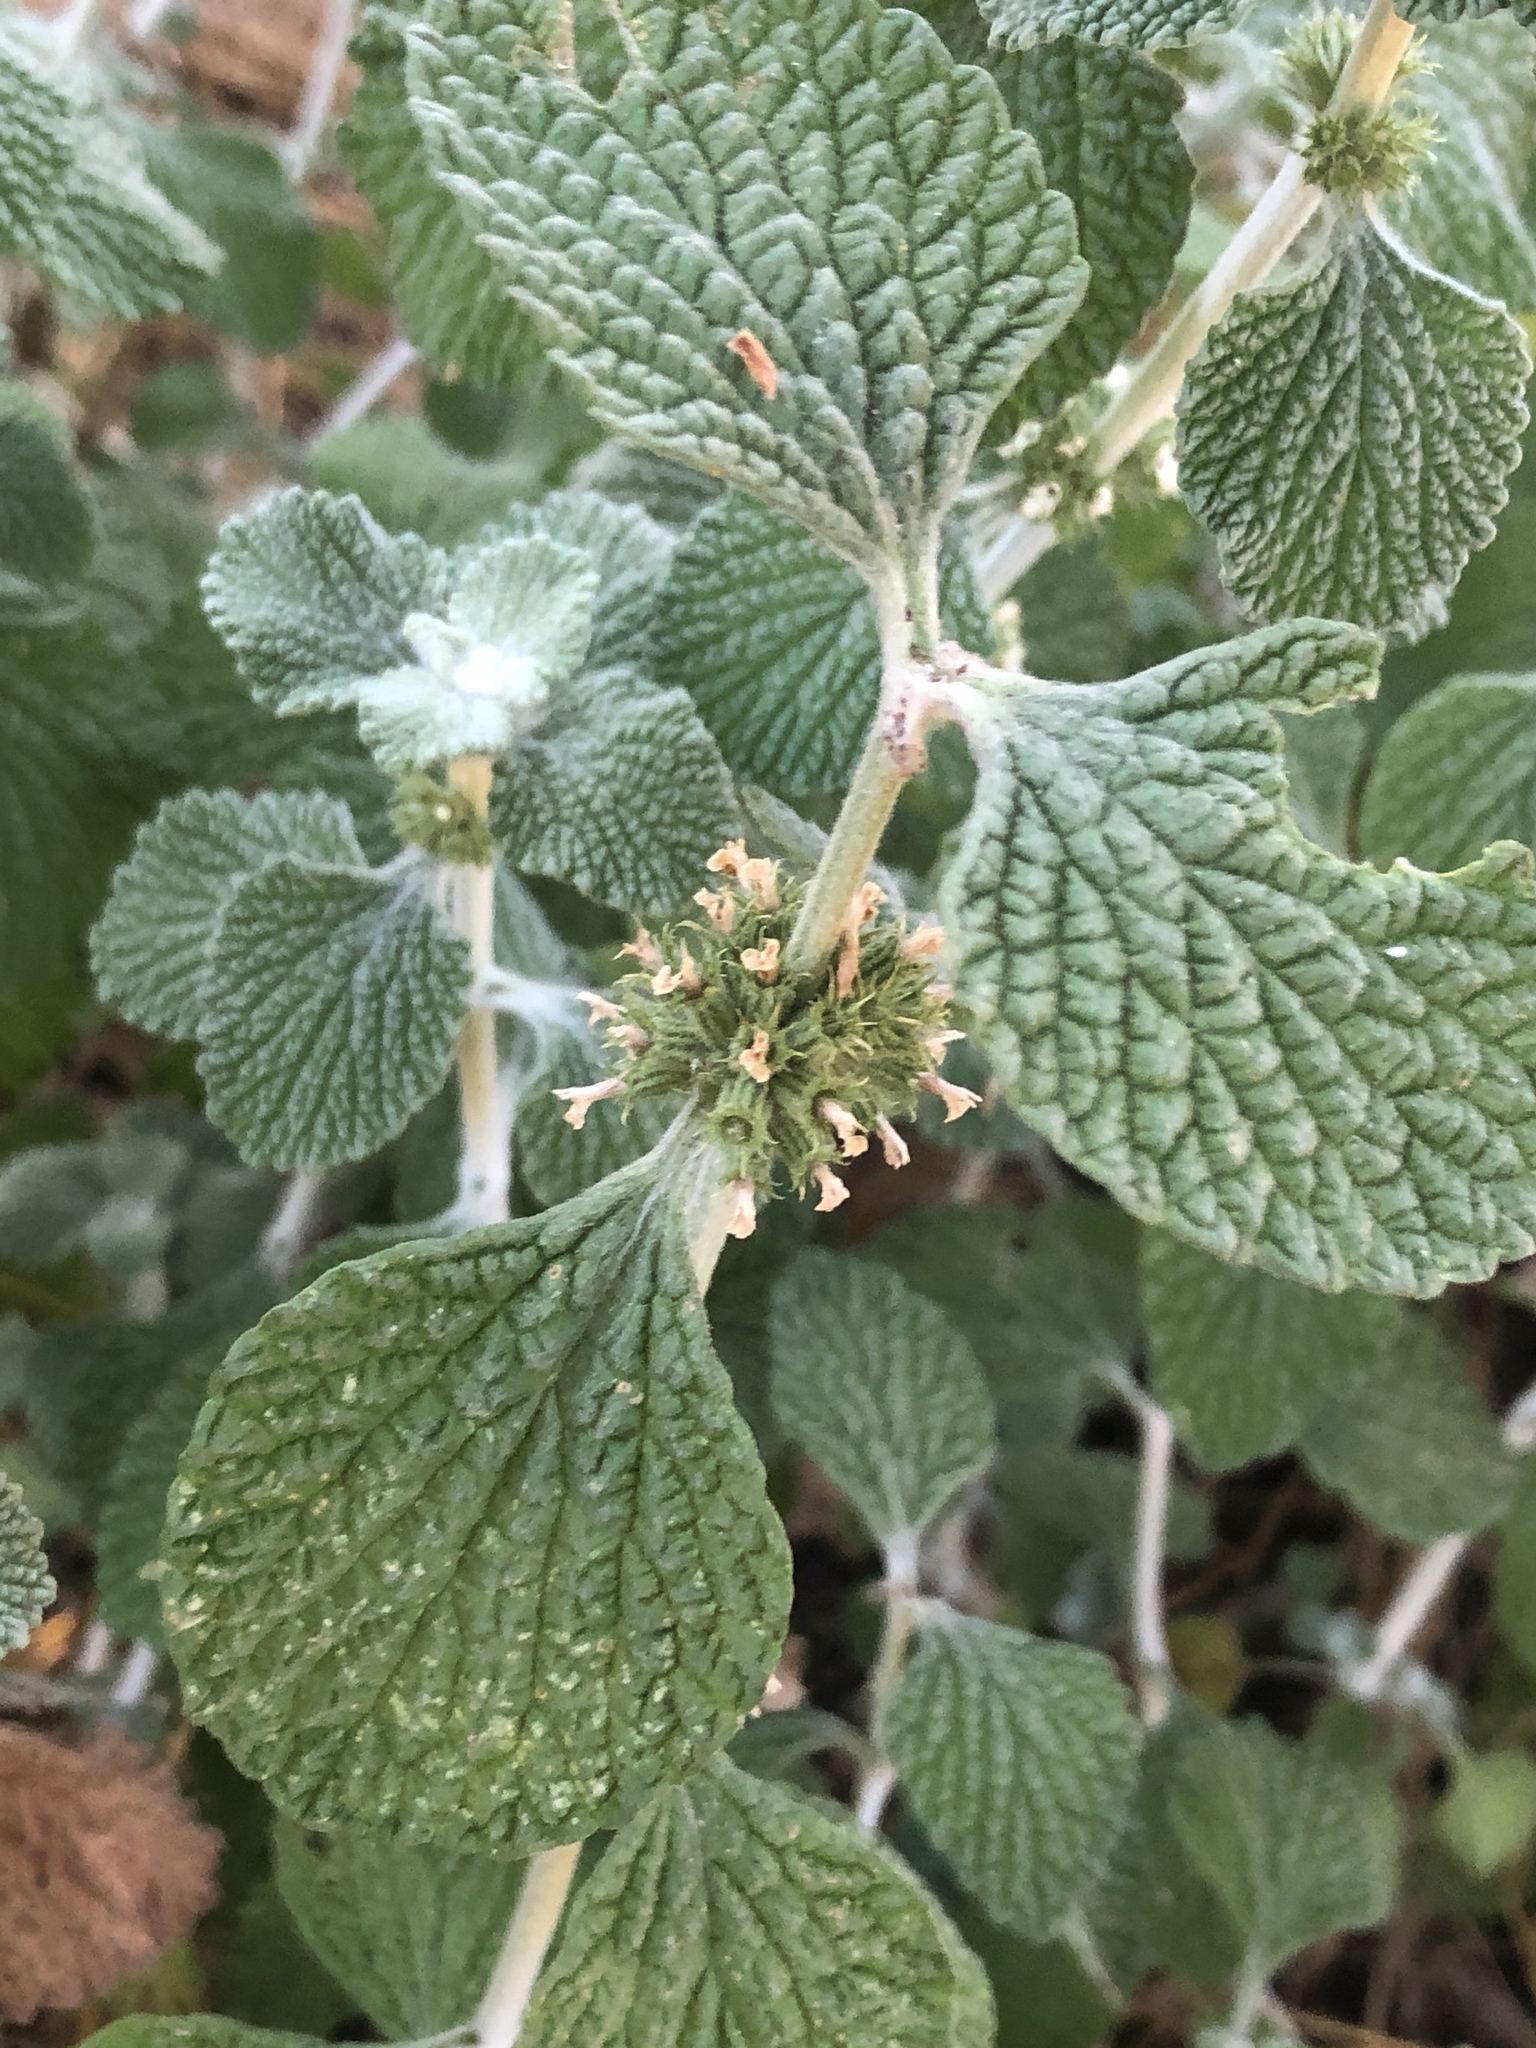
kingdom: Plantae
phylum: Tracheophyta
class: Magnoliopsida
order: Lamiales
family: Lamiaceae
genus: Marrubium
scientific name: Marrubium vulgare
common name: Horehound
